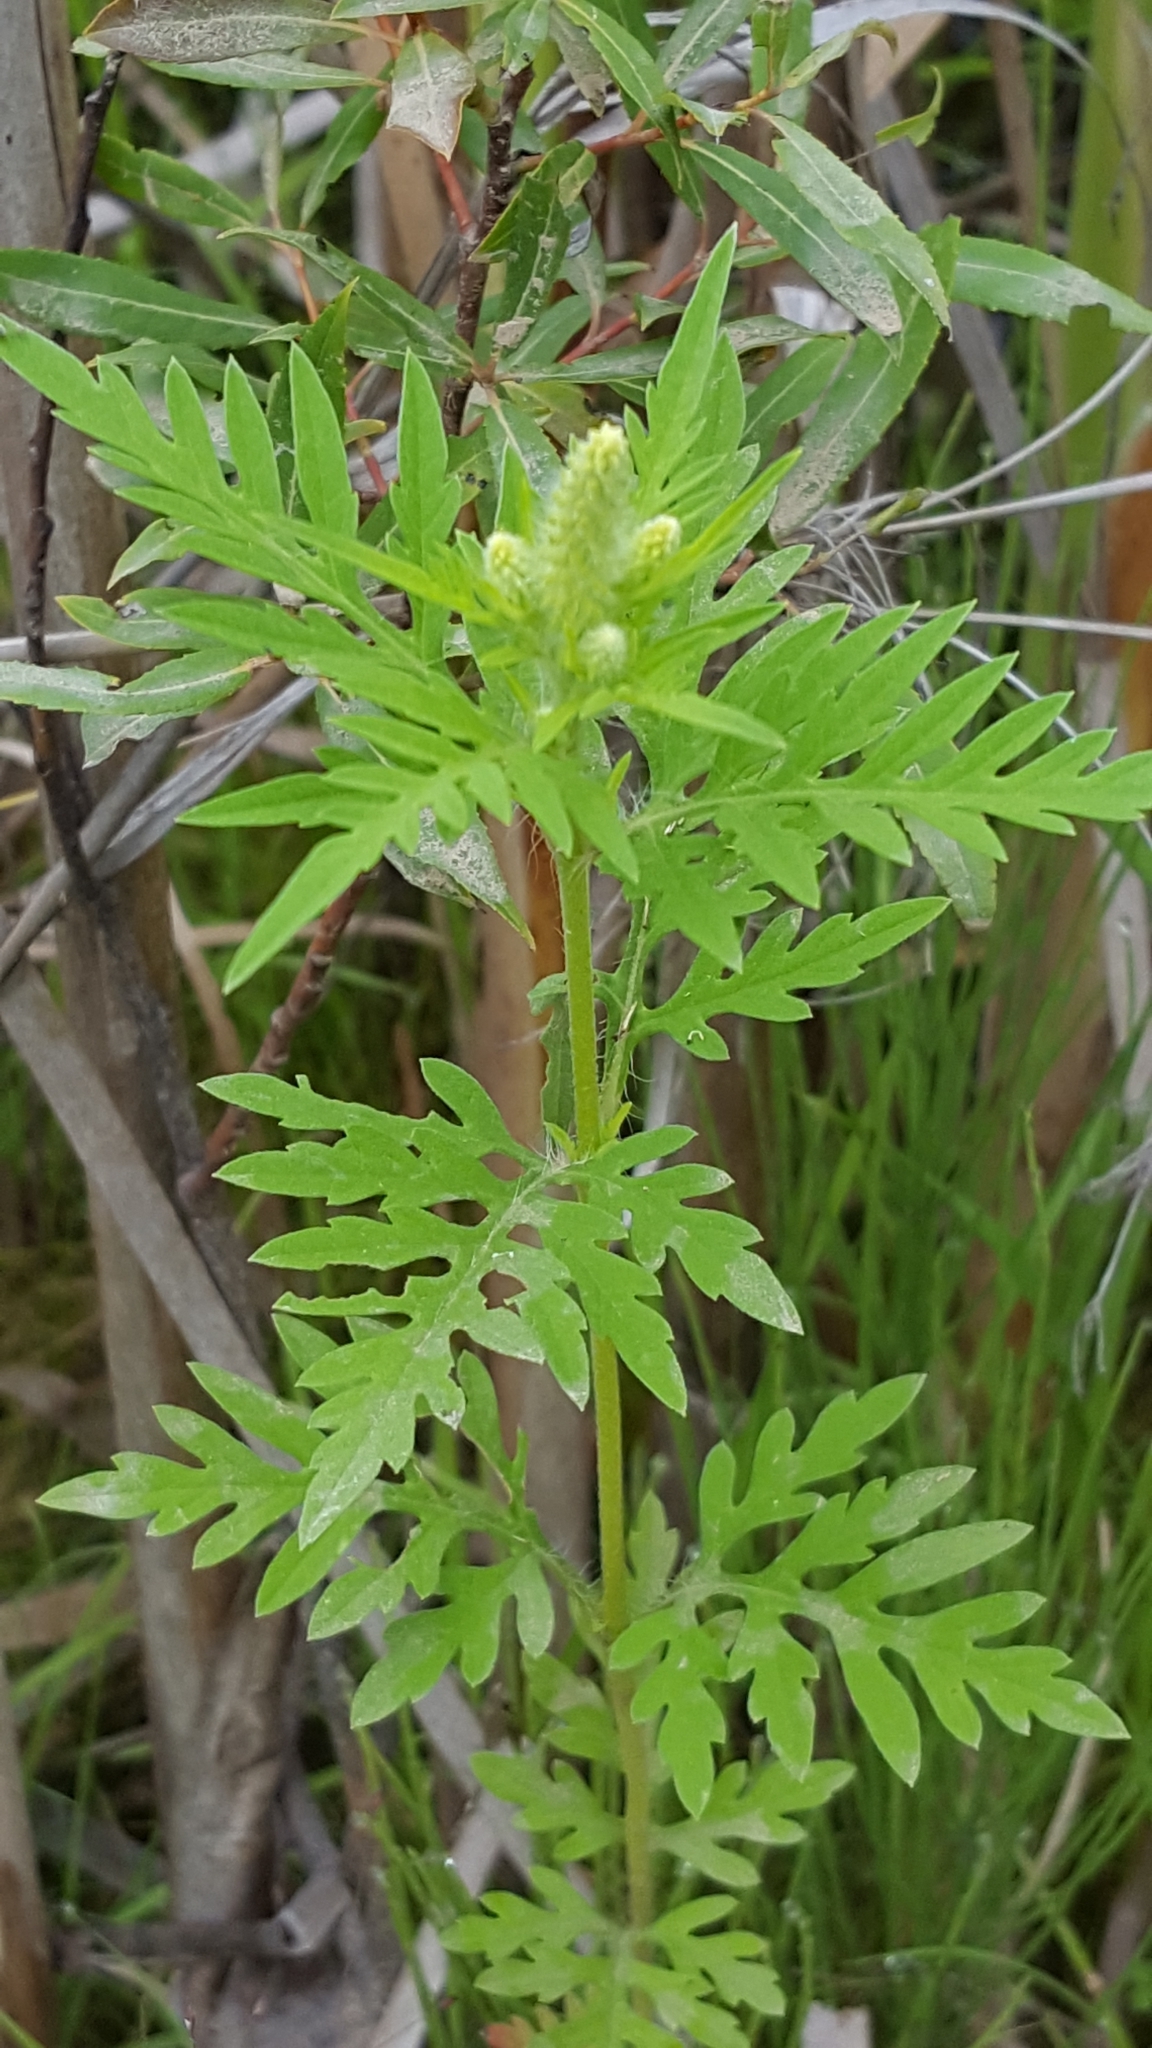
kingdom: Plantae
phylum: Tracheophyta
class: Magnoliopsida
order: Asterales
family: Asteraceae
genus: Ambrosia
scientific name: Ambrosia artemisiifolia
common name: Annual ragweed
